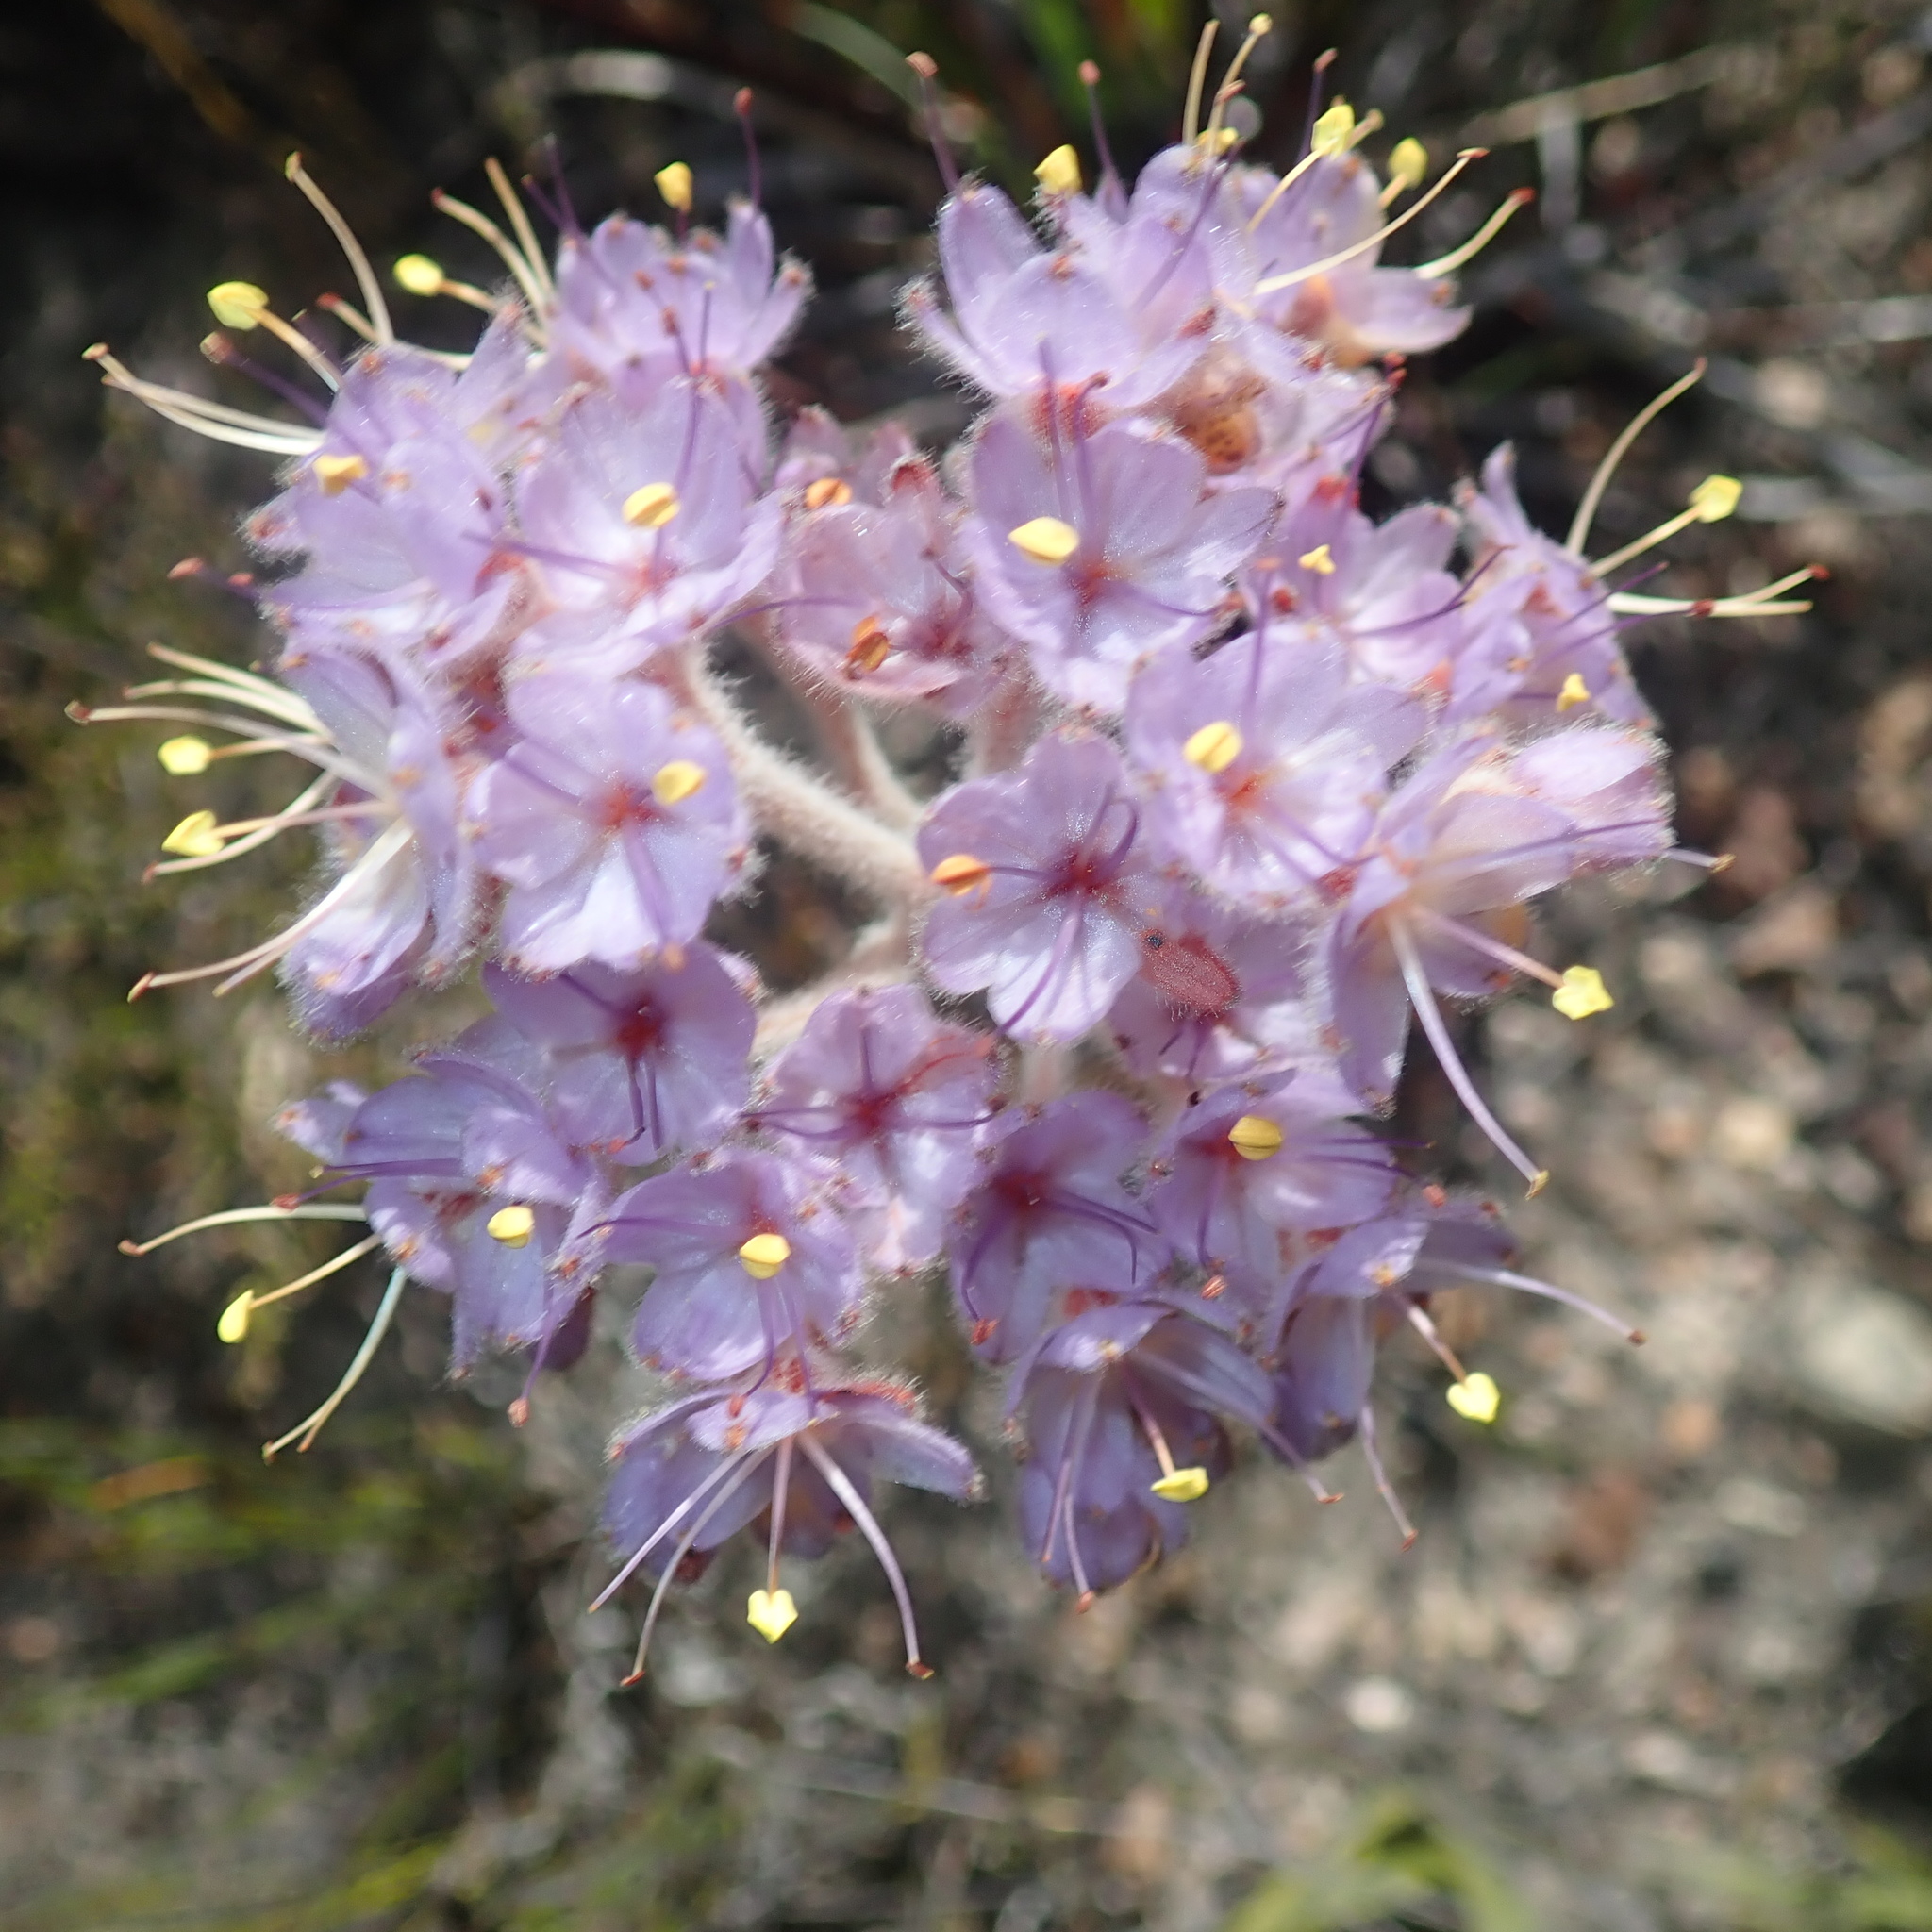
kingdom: Plantae
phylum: Tracheophyta
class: Liliopsida
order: Commelinales
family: Haemodoraceae
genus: Dilatris
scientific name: Dilatris ixioides
